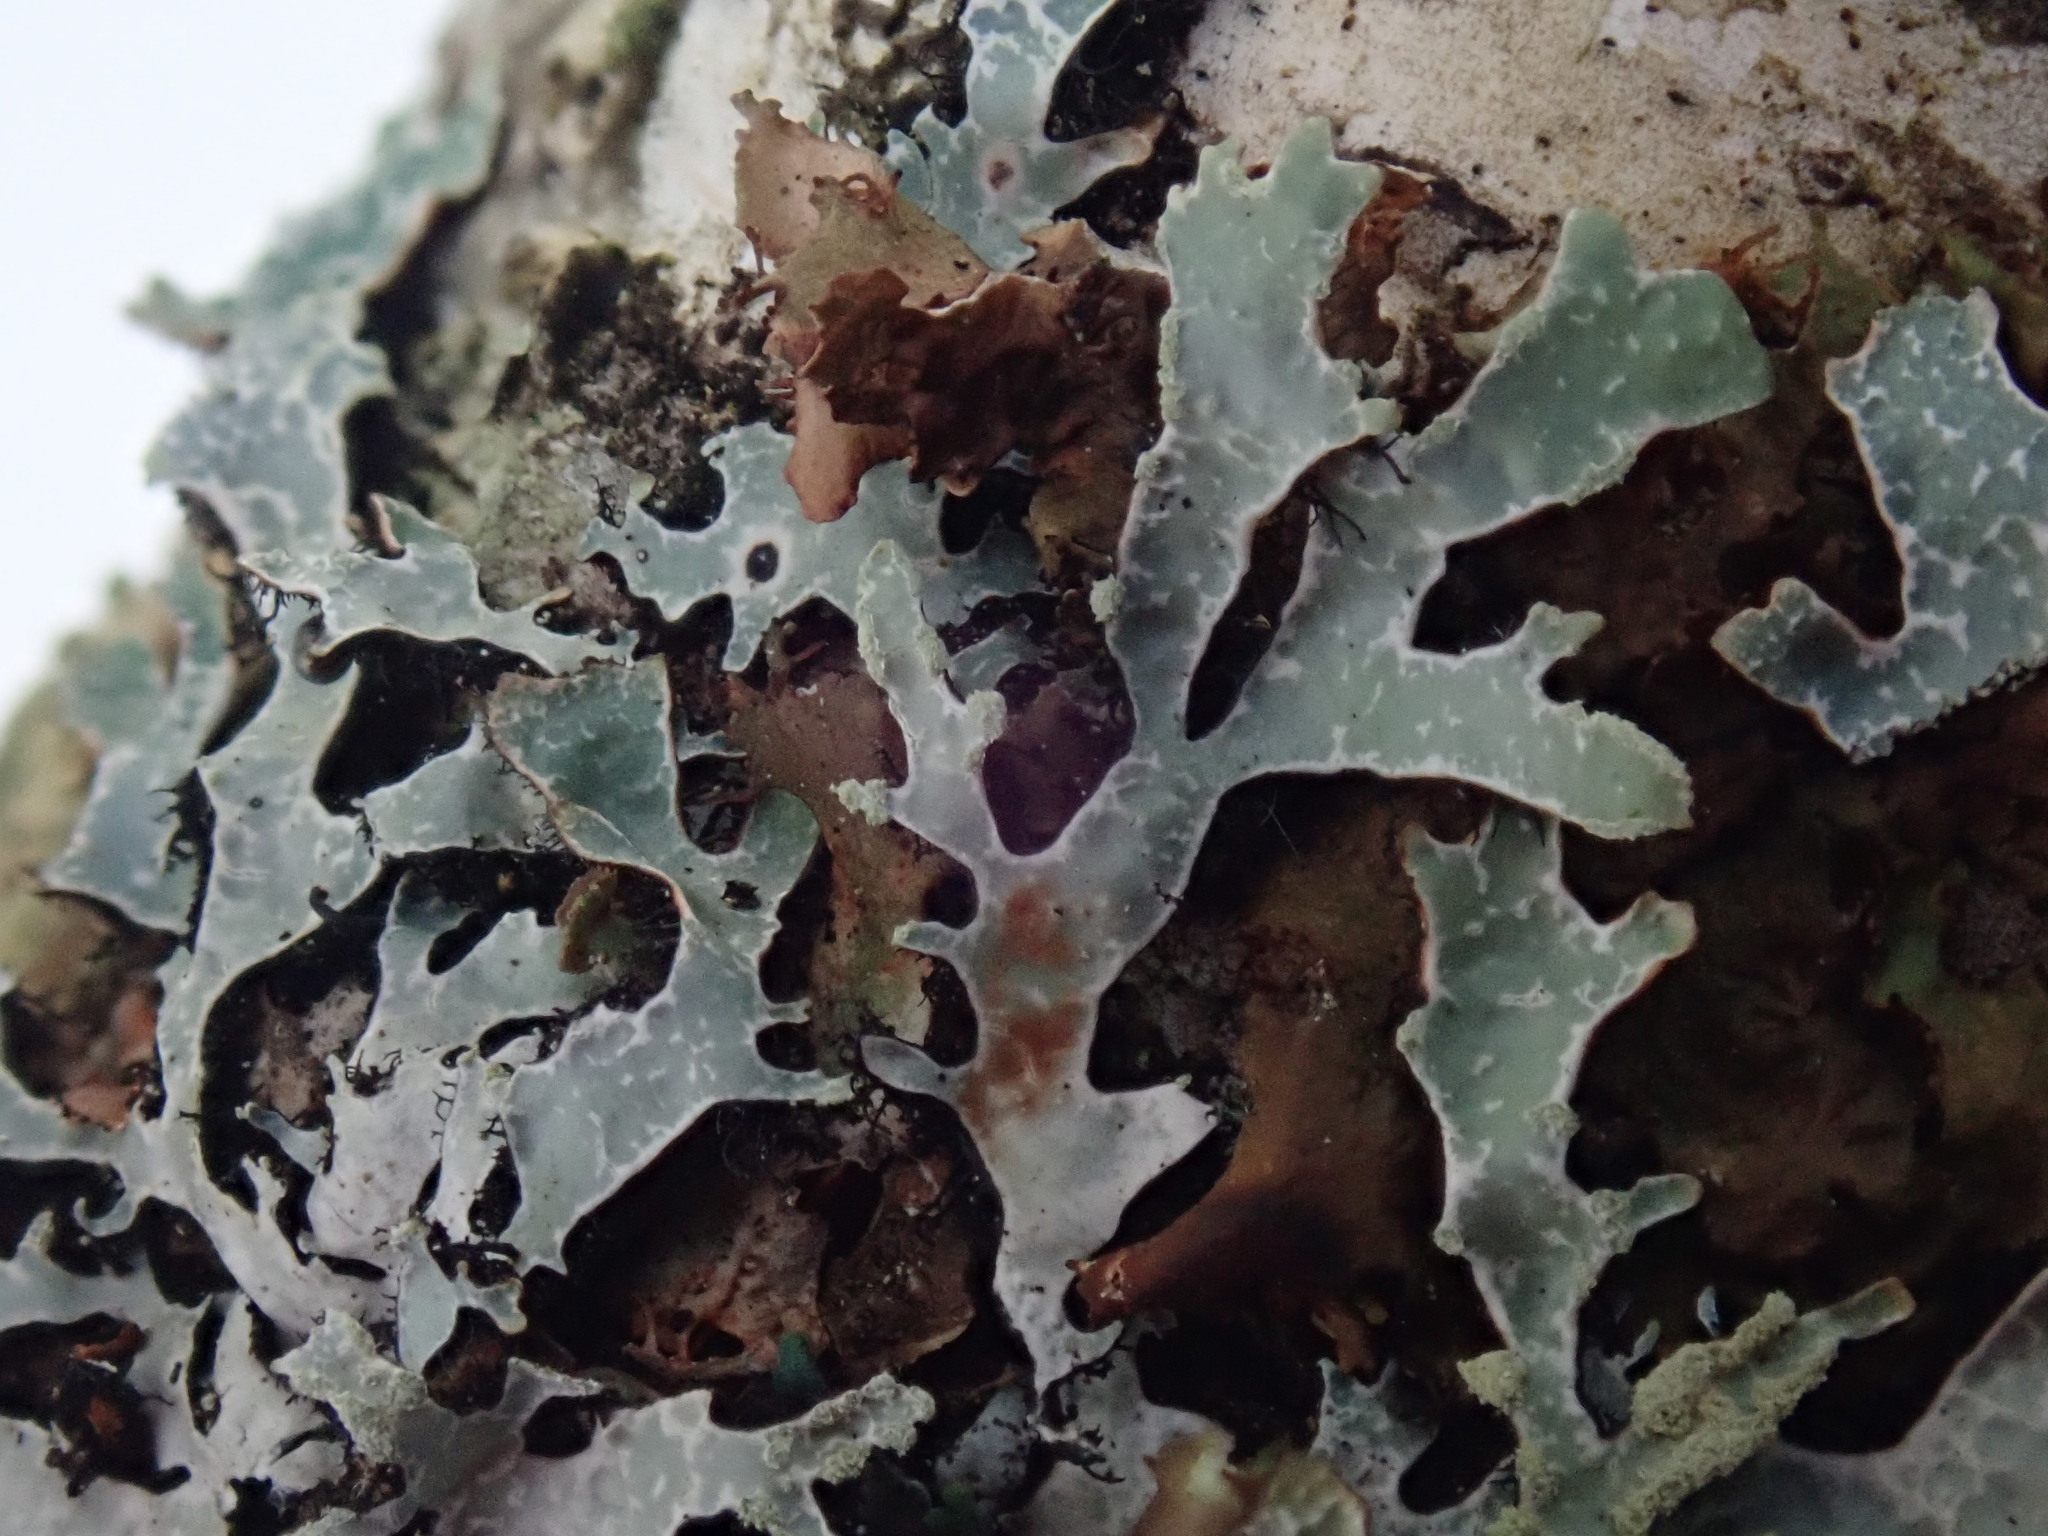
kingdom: Fungi
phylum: Ascomycota
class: Lecanoromycetes
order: Lecanorales
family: Parmeliaceae
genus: Parmelia
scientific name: Parmelia sulcata
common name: Netted shield lichen
